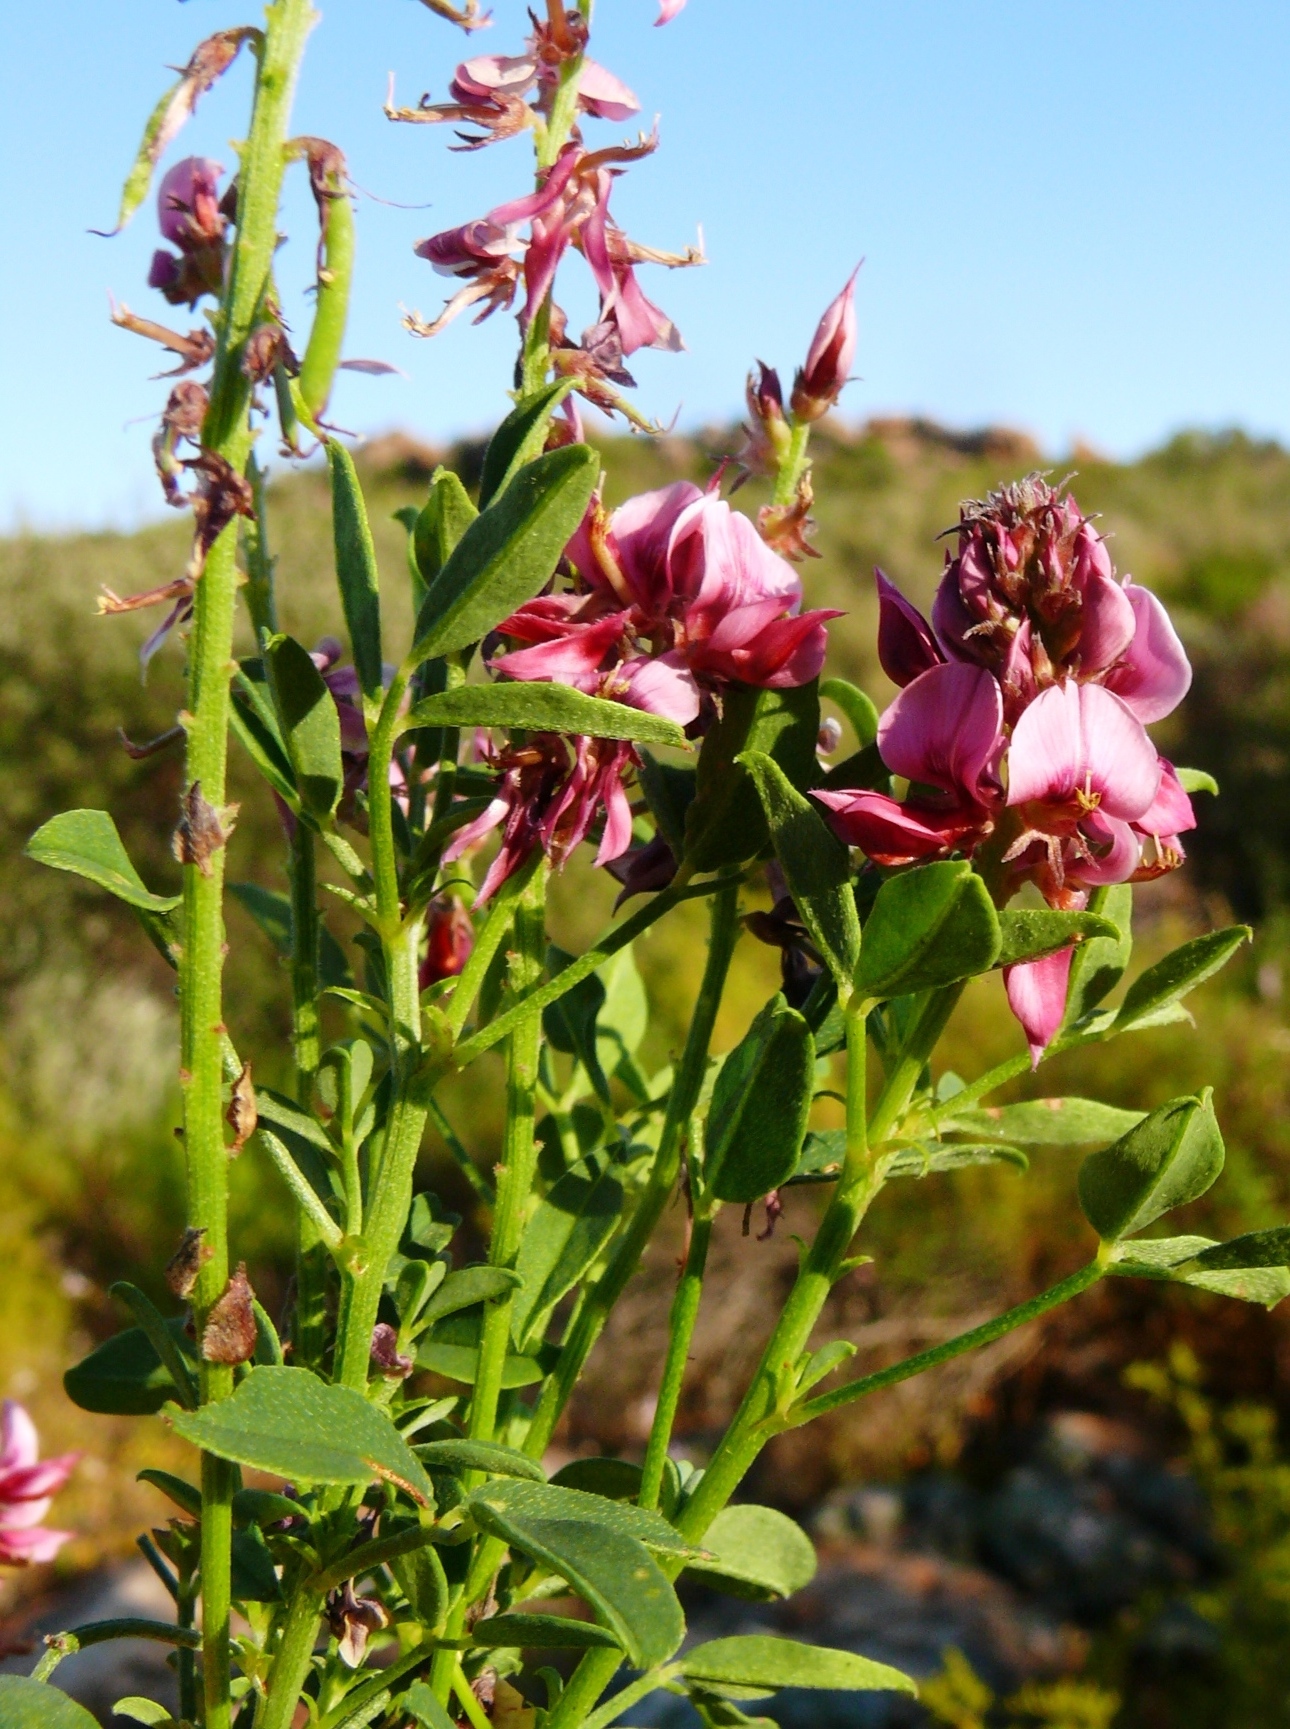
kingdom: Plantae
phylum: Tracheophyta
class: Magnoliopsida
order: Fabales
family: Fabaceae
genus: Indigofera
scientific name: Indigofera intermedia
